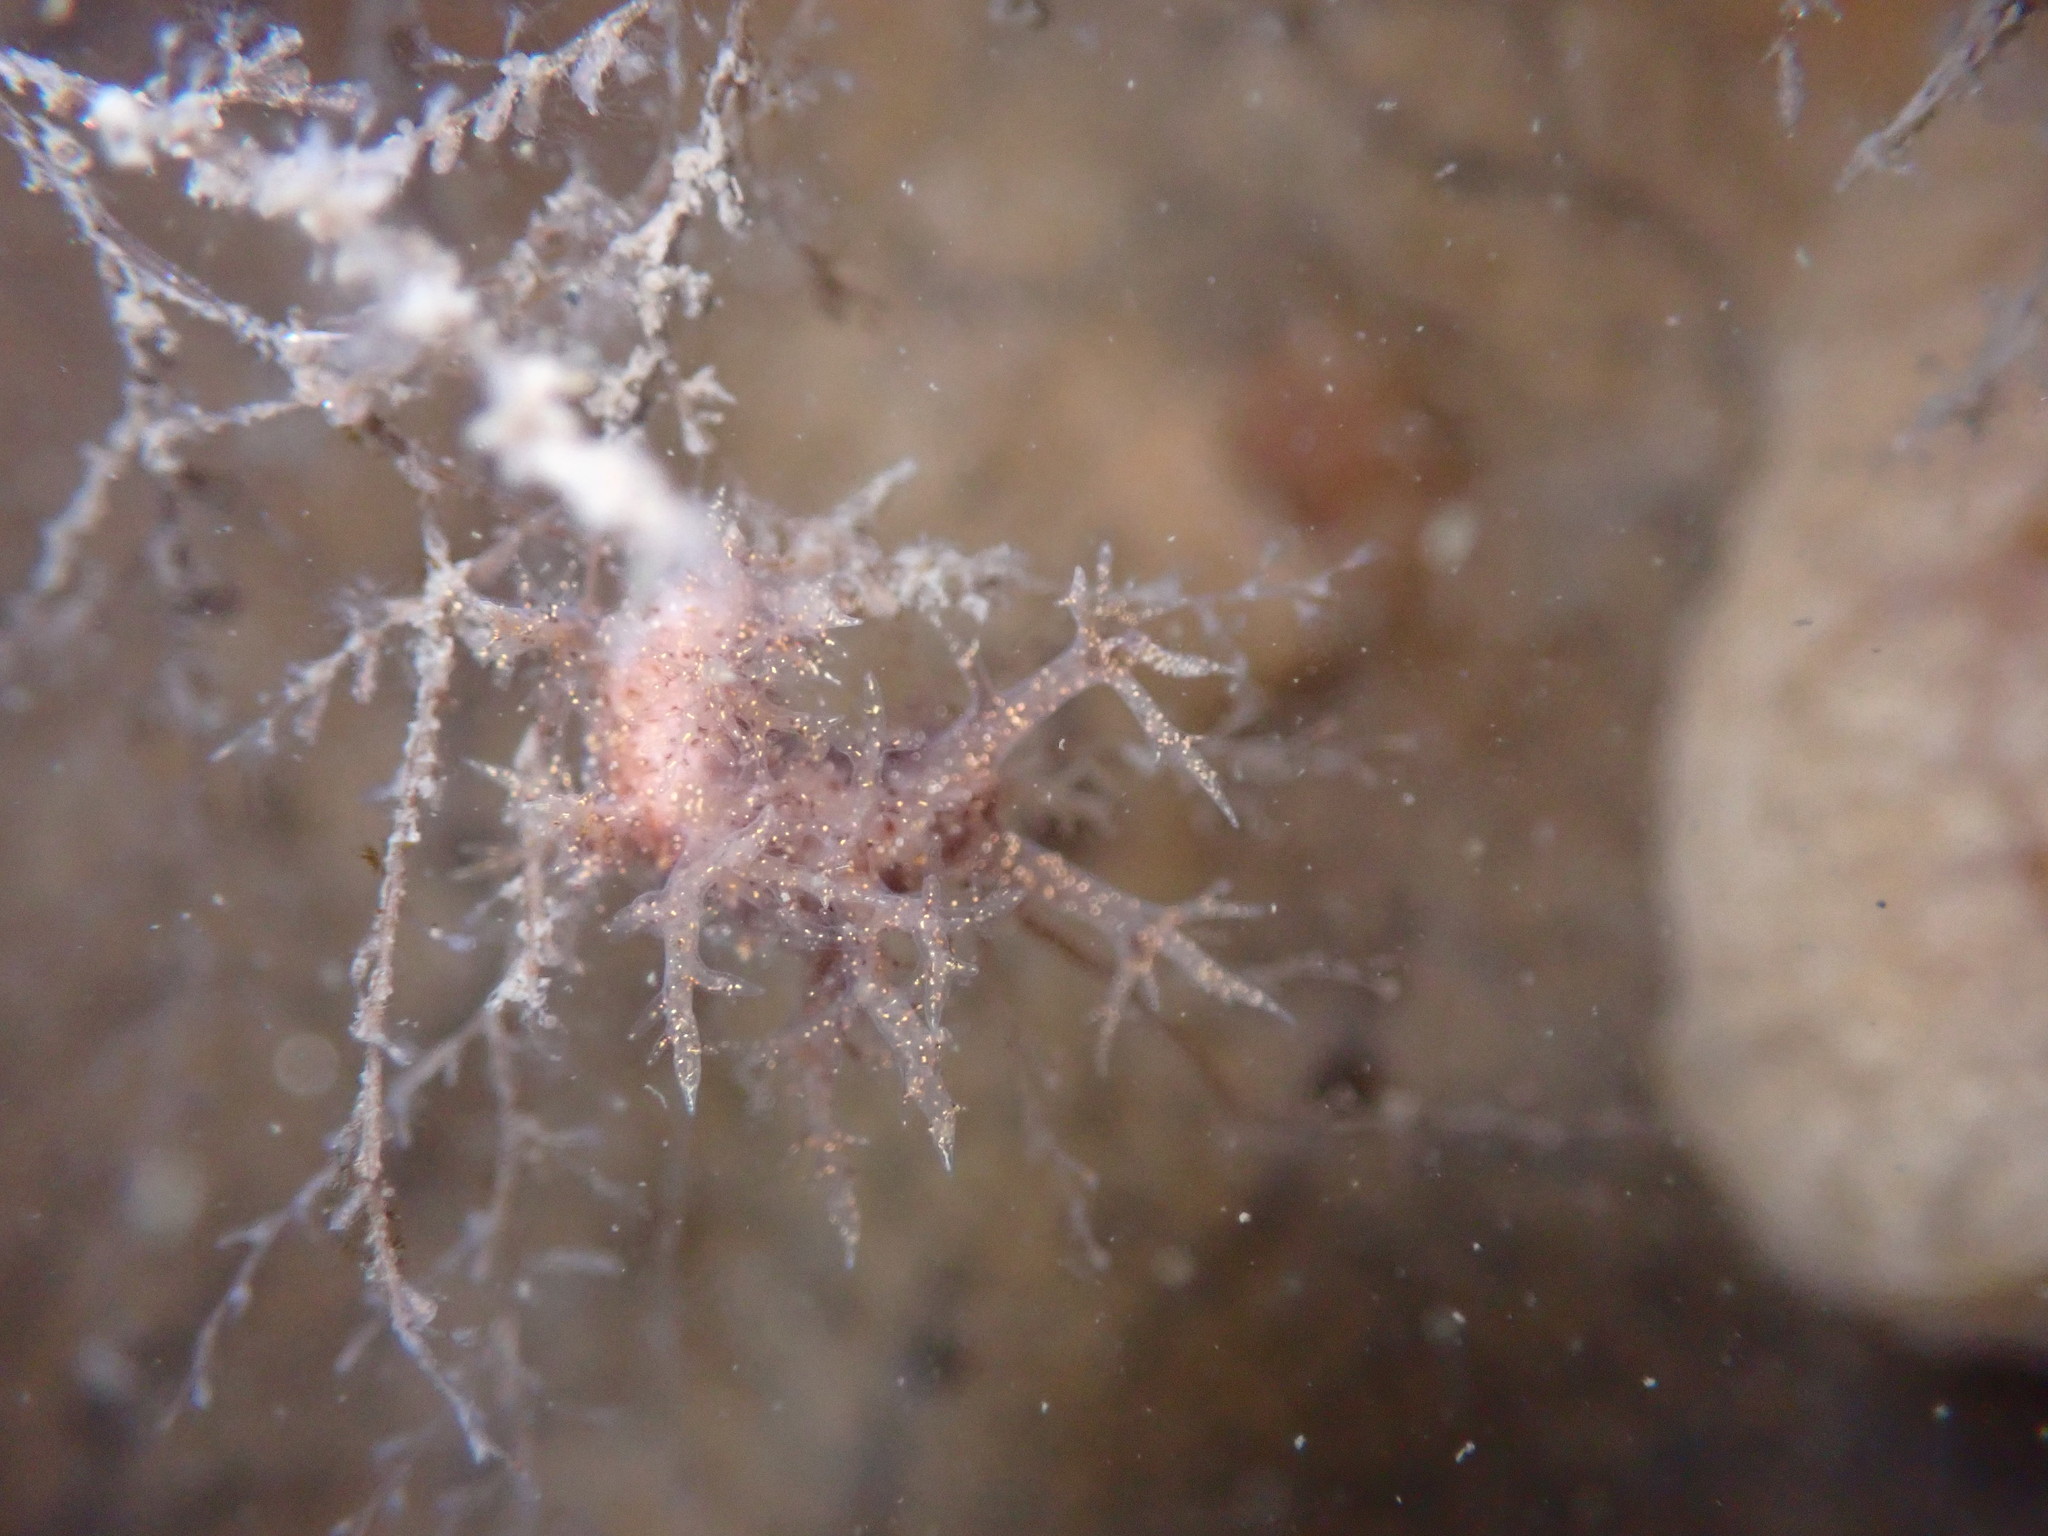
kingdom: Animalia
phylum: Mollusca
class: Gastropoda
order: Nudibranchia
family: Dendronotidae
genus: Dendronotus
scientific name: Dendronotus venustus
